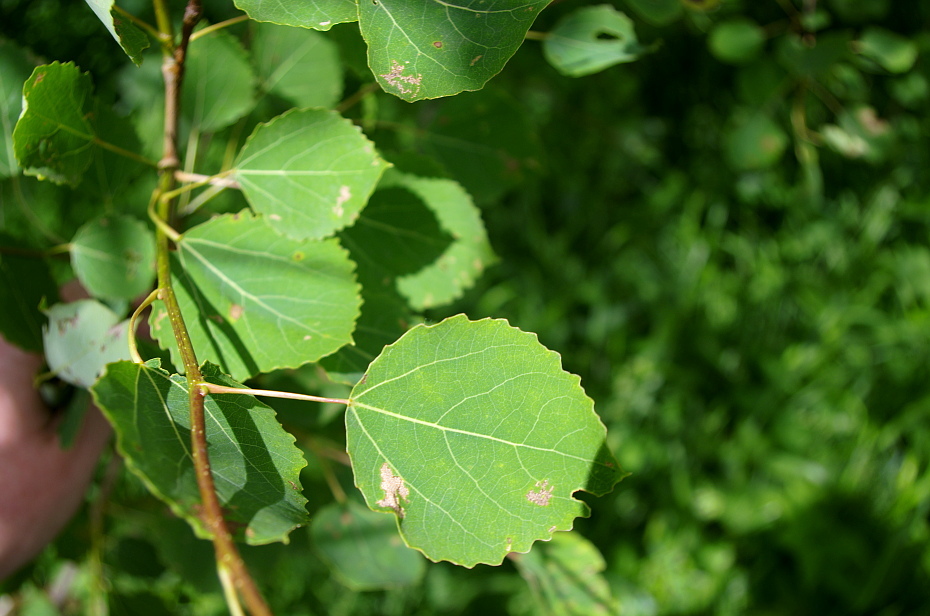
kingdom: Plantae
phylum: Tracheophyta
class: Magnoliopsida
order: Malpighiales
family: Salicaceae
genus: Populus
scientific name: Populus tremula
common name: European aspen
